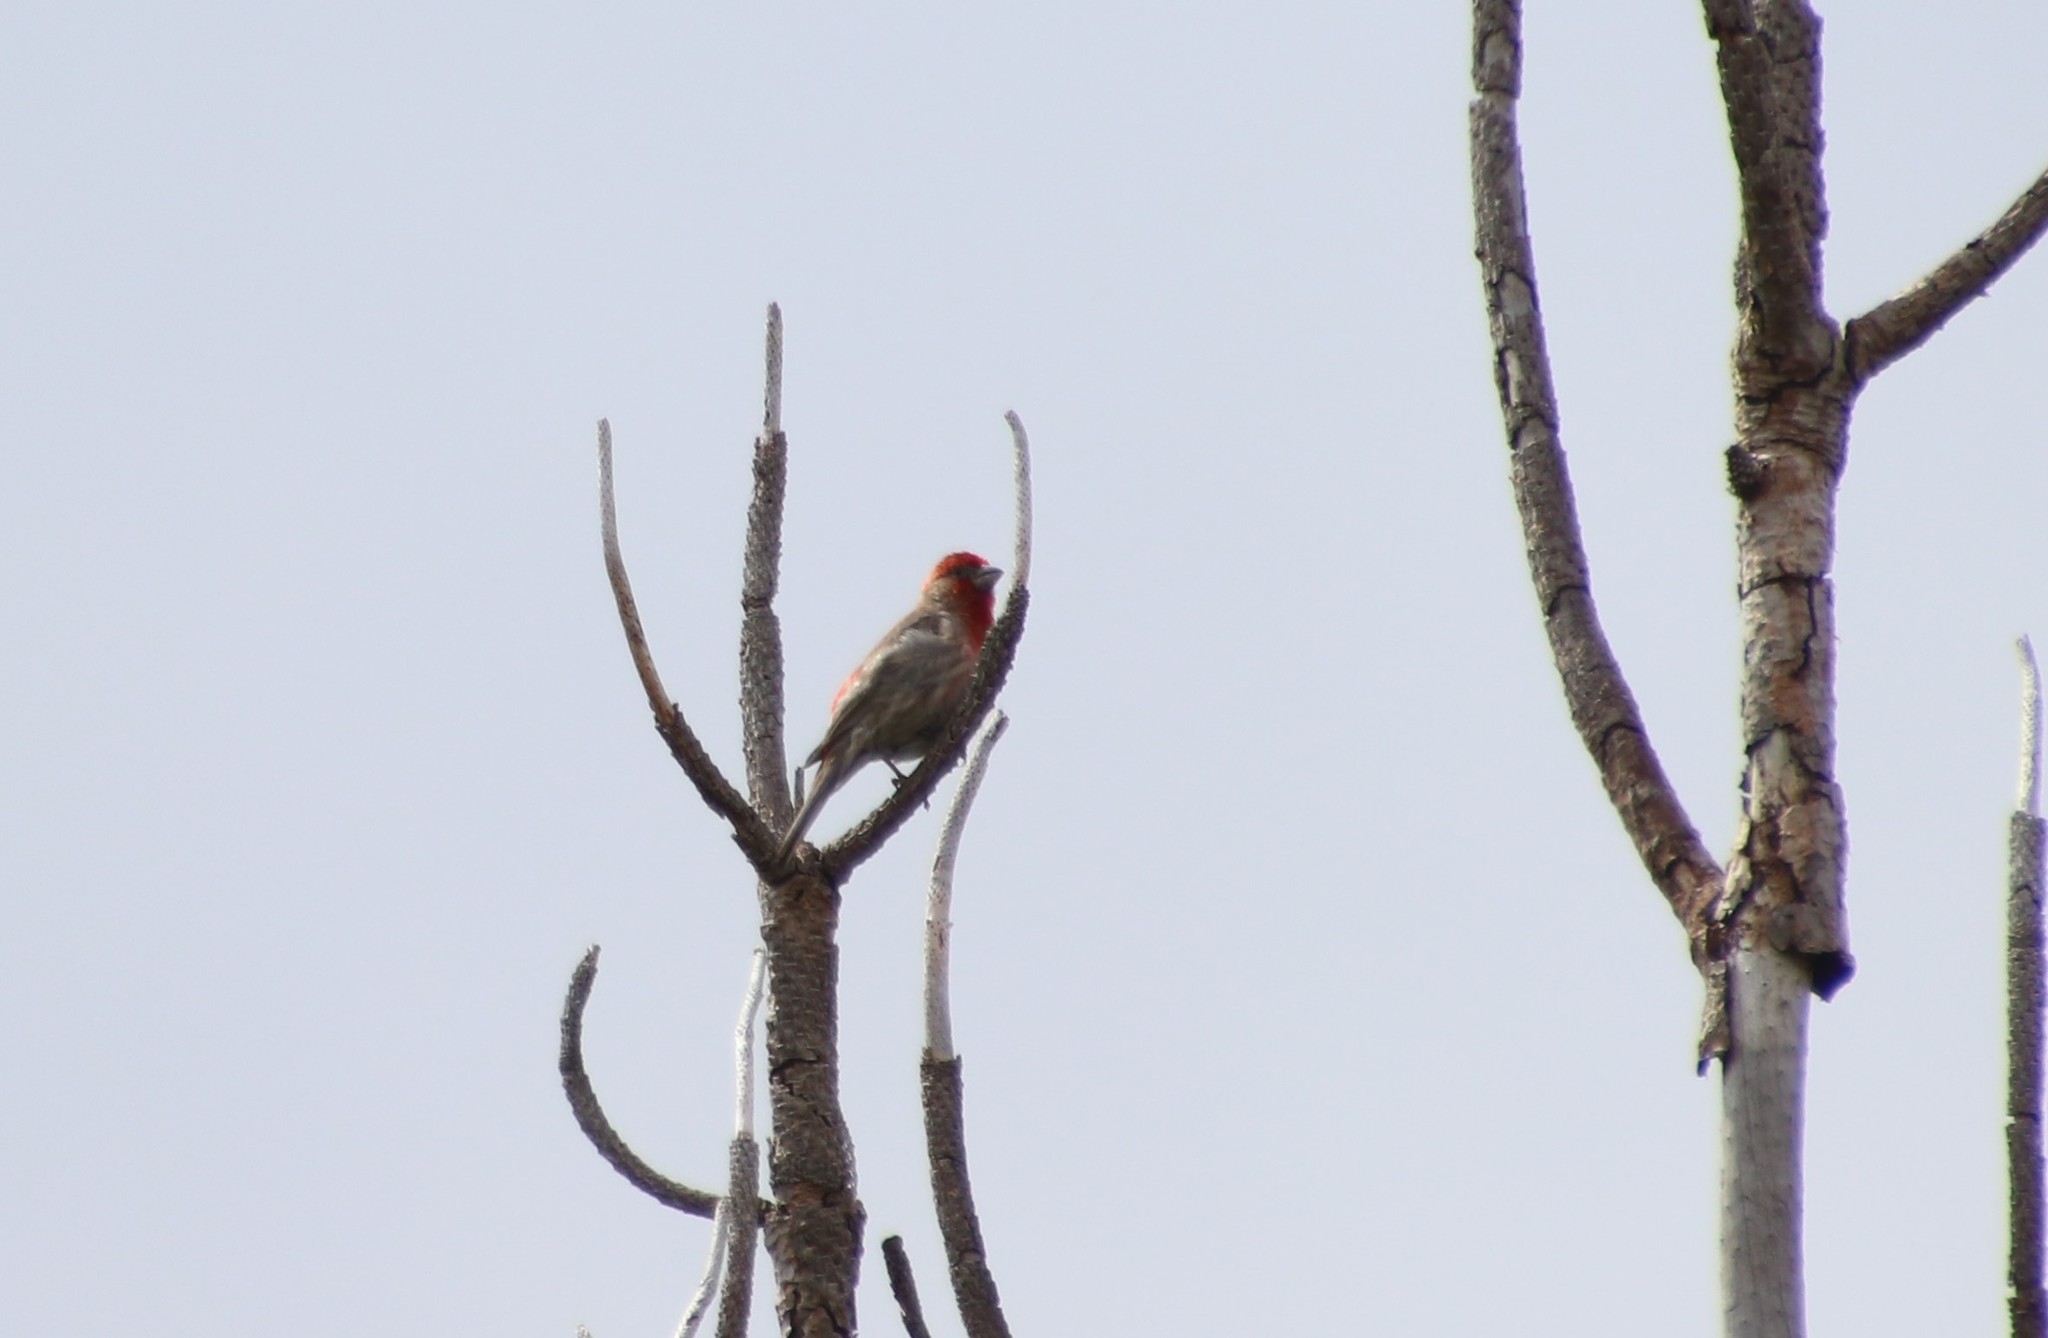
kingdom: Animalia
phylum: Chordata
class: Aves
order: Passeriformes
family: Fringillidae
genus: Haemorhous
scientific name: Haemorhous mexicanus
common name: House finch
